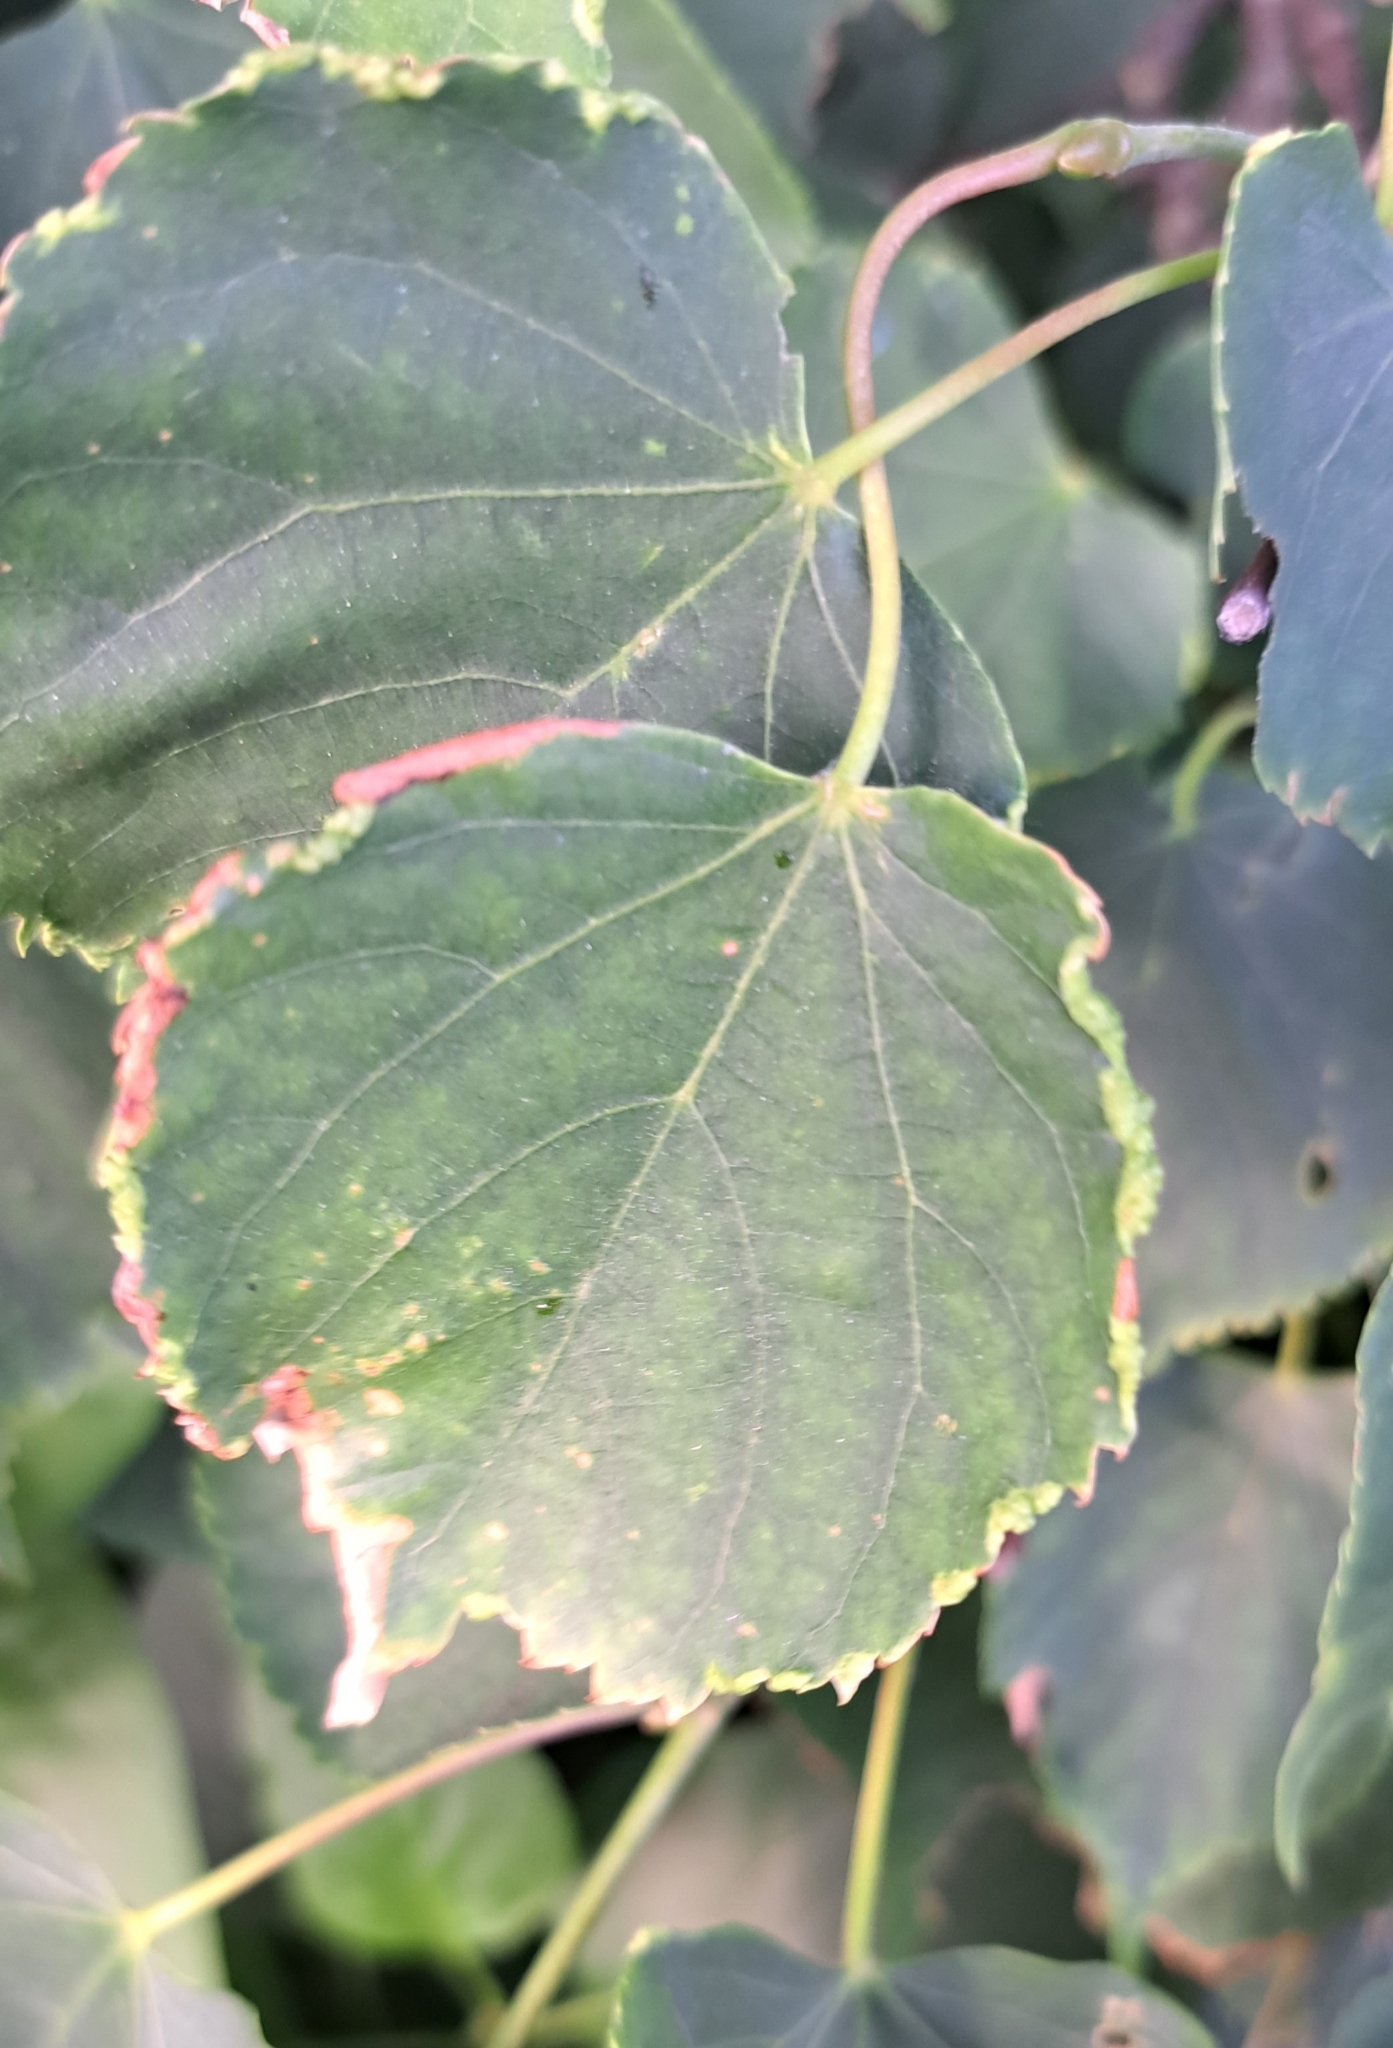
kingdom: Animalia
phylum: Arthropoda
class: Arachnida
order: Trombidiformes
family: Phytoptidae
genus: Phytoptus
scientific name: Phytoptus tetratrichus
